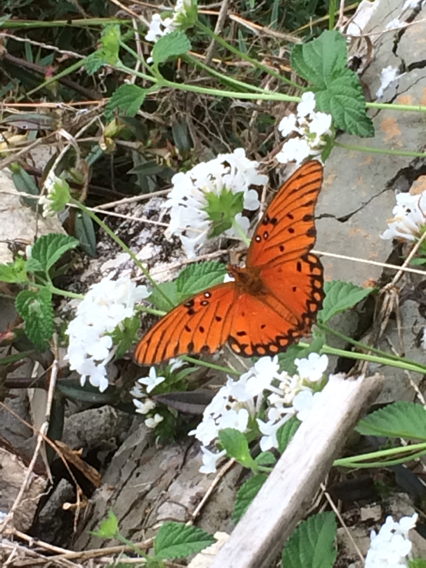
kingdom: Animalia
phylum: Arthropoda
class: Insecta
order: Lepidoptera
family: Nymphalidae
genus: Dione
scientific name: Dione vanillae
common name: Gulf fritillary
